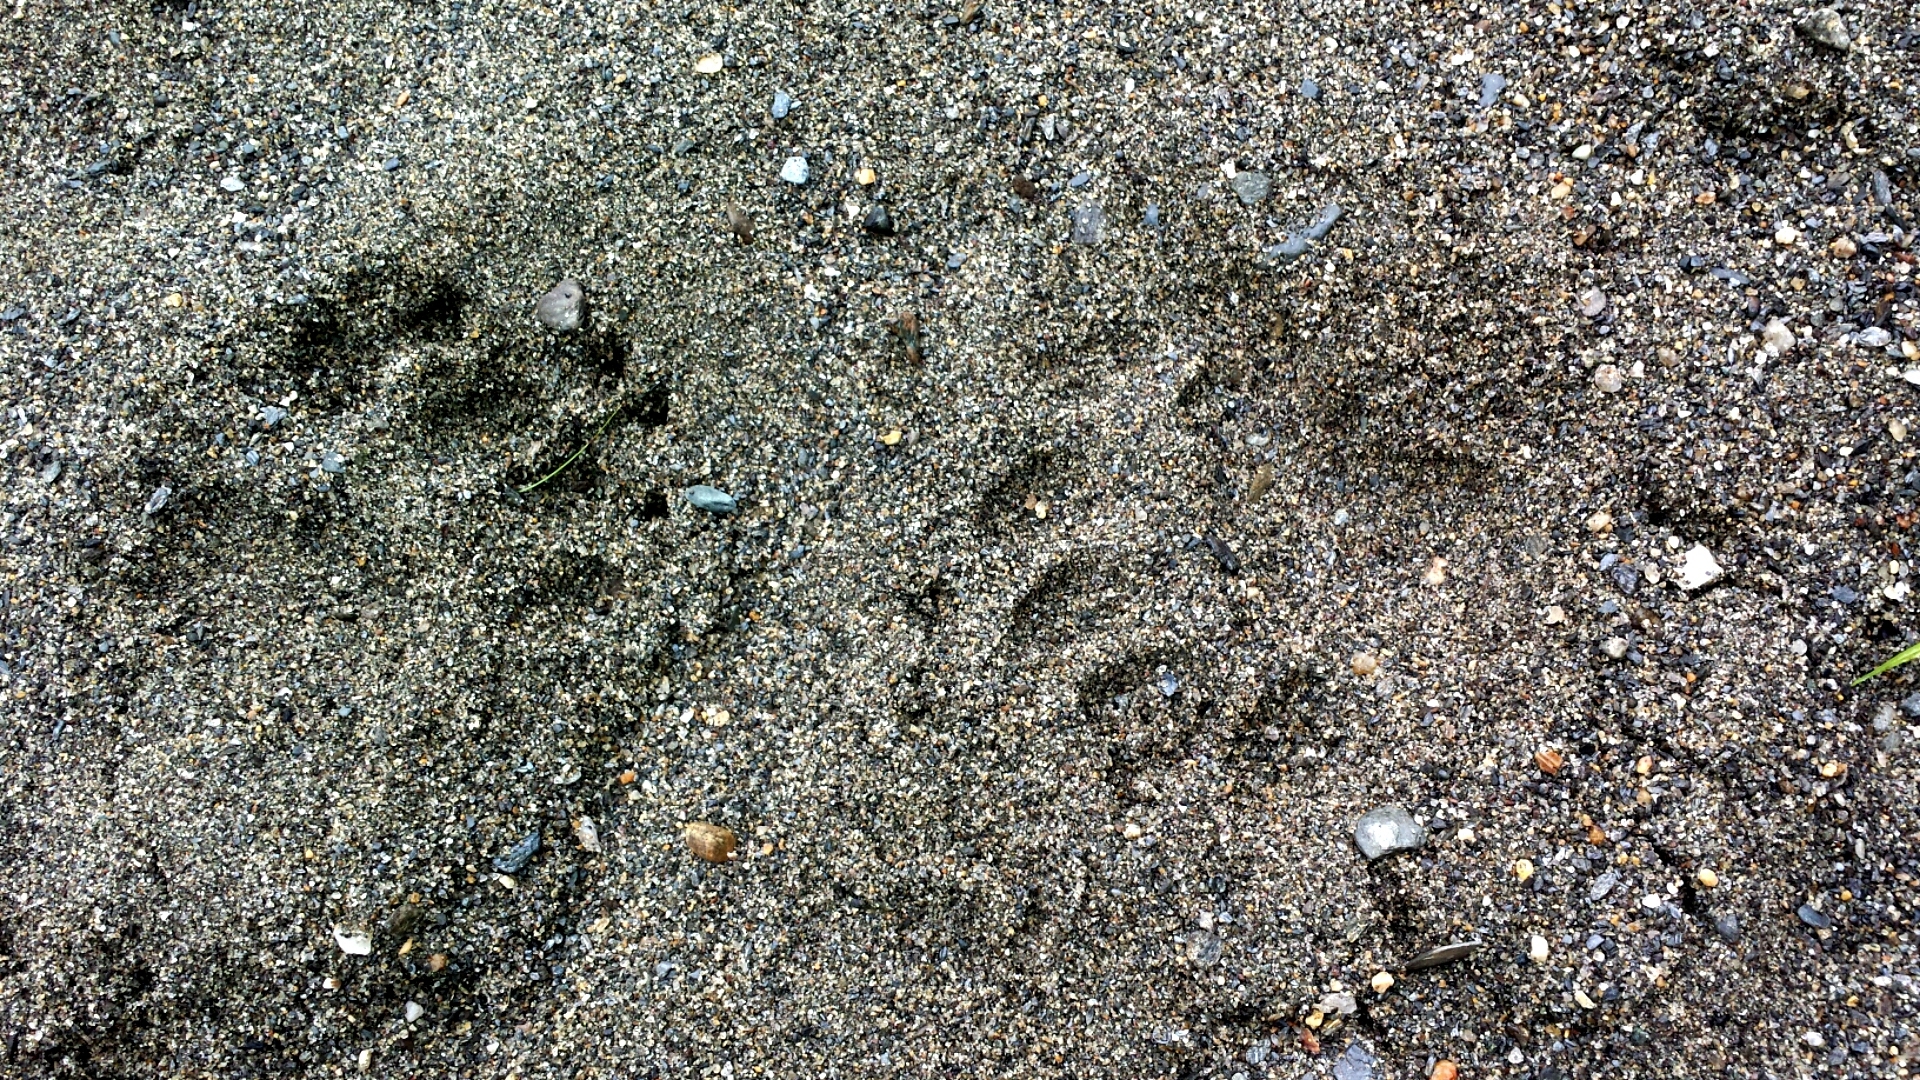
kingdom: Animalia
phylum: Chordata
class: Mammalia
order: Carnivora
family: Ursidae
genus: Ursus
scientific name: Ursus americanus
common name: American black bear
